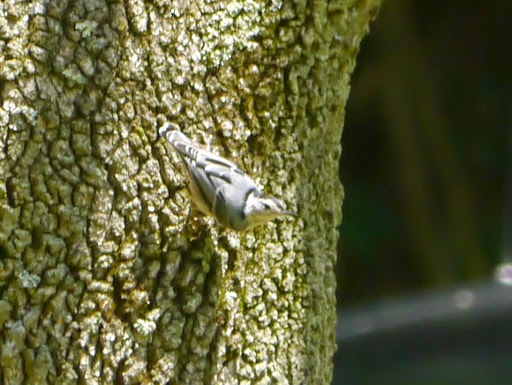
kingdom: Animalia
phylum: Chordata
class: Aves
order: Passeriformes
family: Sittidae
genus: Sitta
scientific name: Sitta carolinensis
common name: White-breasted nuthatch
